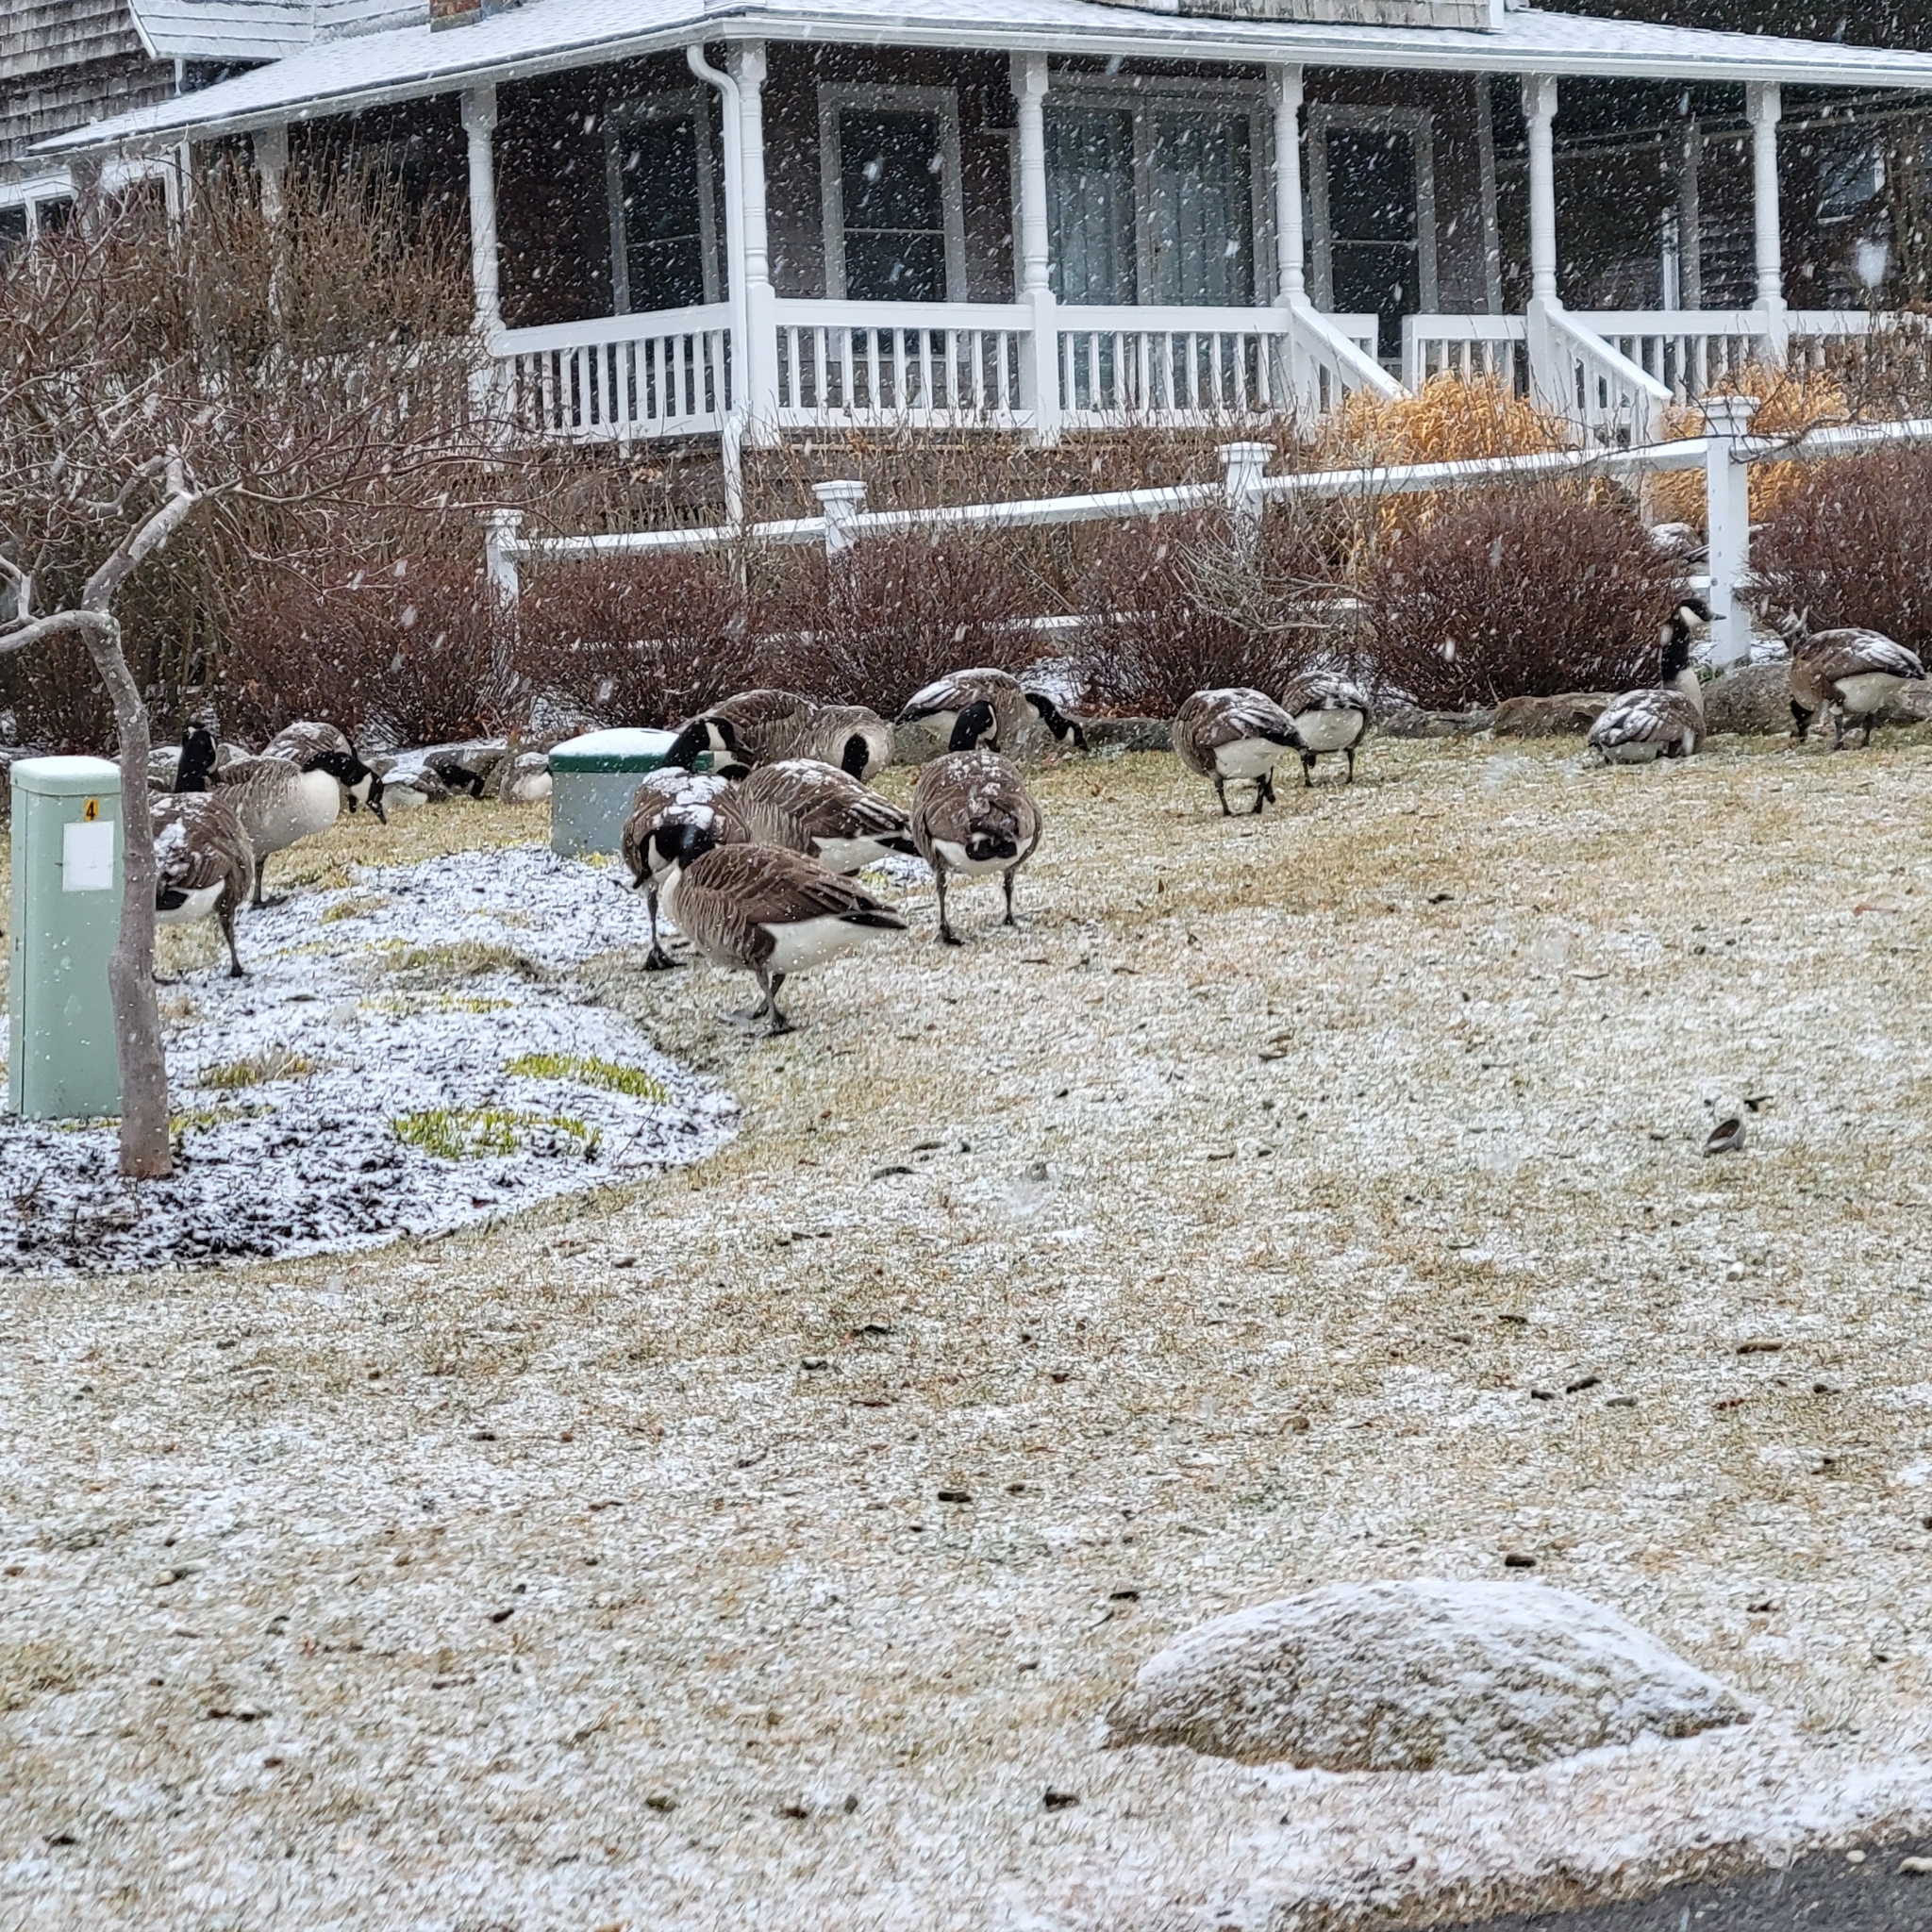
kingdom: Animalia
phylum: Chordata
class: Aves
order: Anseriformes
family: Anatidae
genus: Branta
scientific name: Branta canadensis
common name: Canada goose
